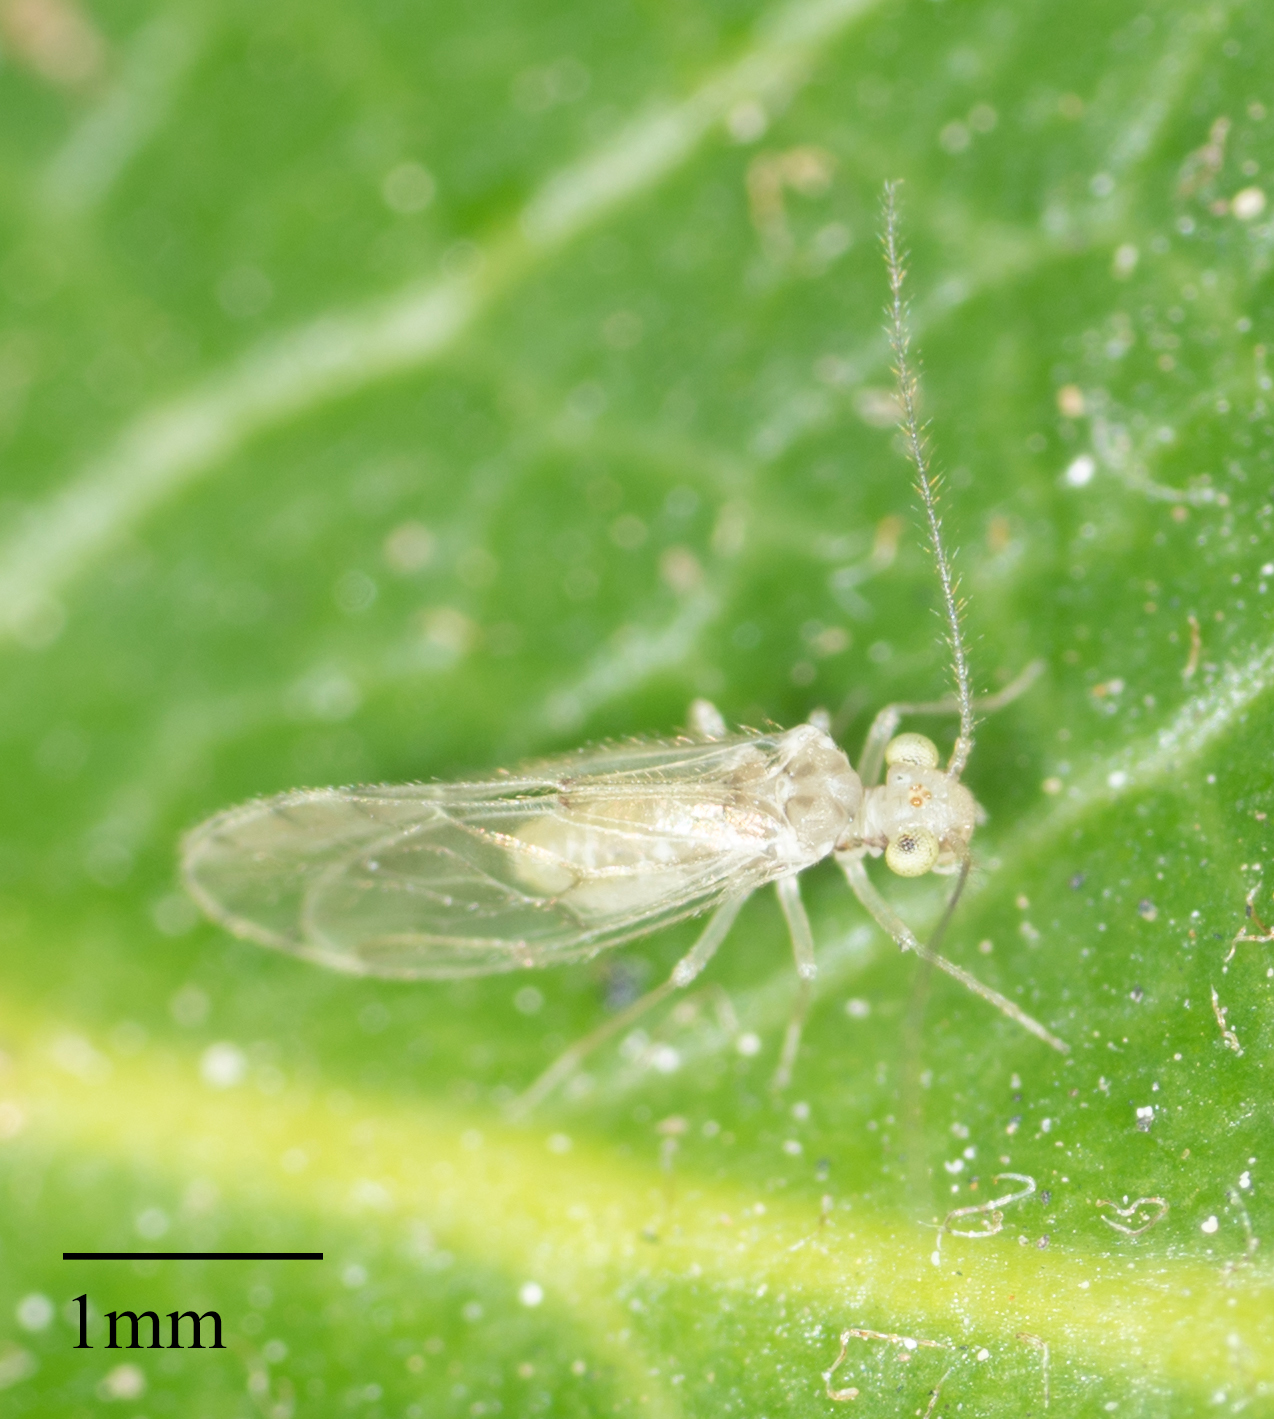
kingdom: Animalia
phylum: Arthropoda
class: Insecta
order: Psocodea
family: Trichopsocidae
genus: Trichopsocus
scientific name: Trichopsocus clarus
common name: Lash-faced psocid
